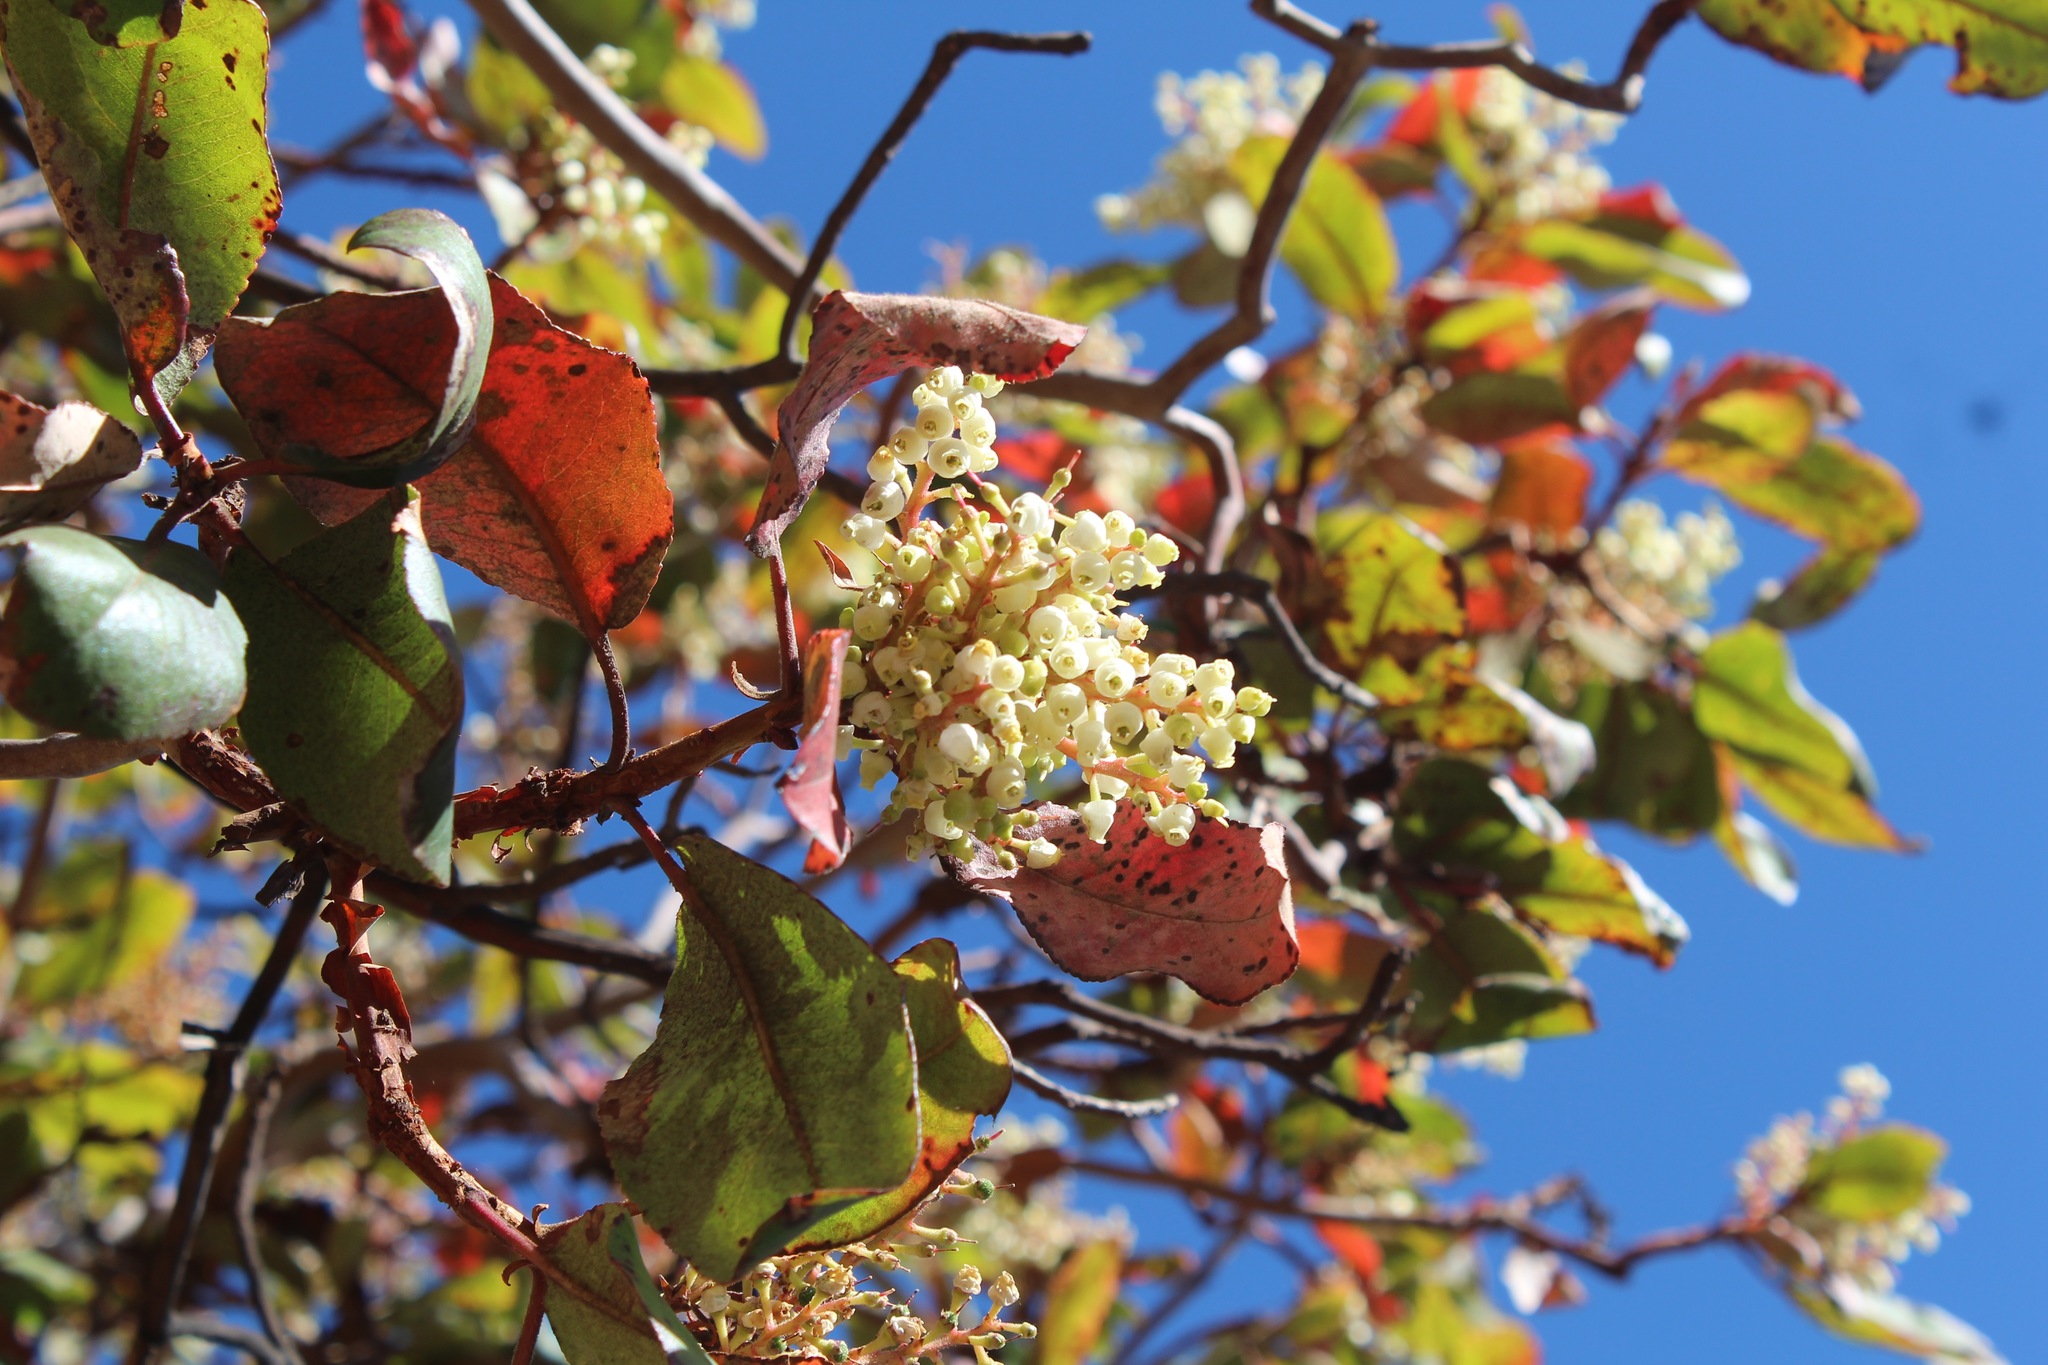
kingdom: Plantae
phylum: Tracheophyta
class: Magnoliopsida
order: Ericales
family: Ericaceae
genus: Arbutus
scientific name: Arbutus xalapensis
